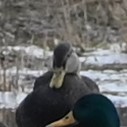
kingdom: Animalia
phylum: Chordata
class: Aves
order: Anseriformes
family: Anatidae
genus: Anas
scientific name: Anas rubripes
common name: American black duck
